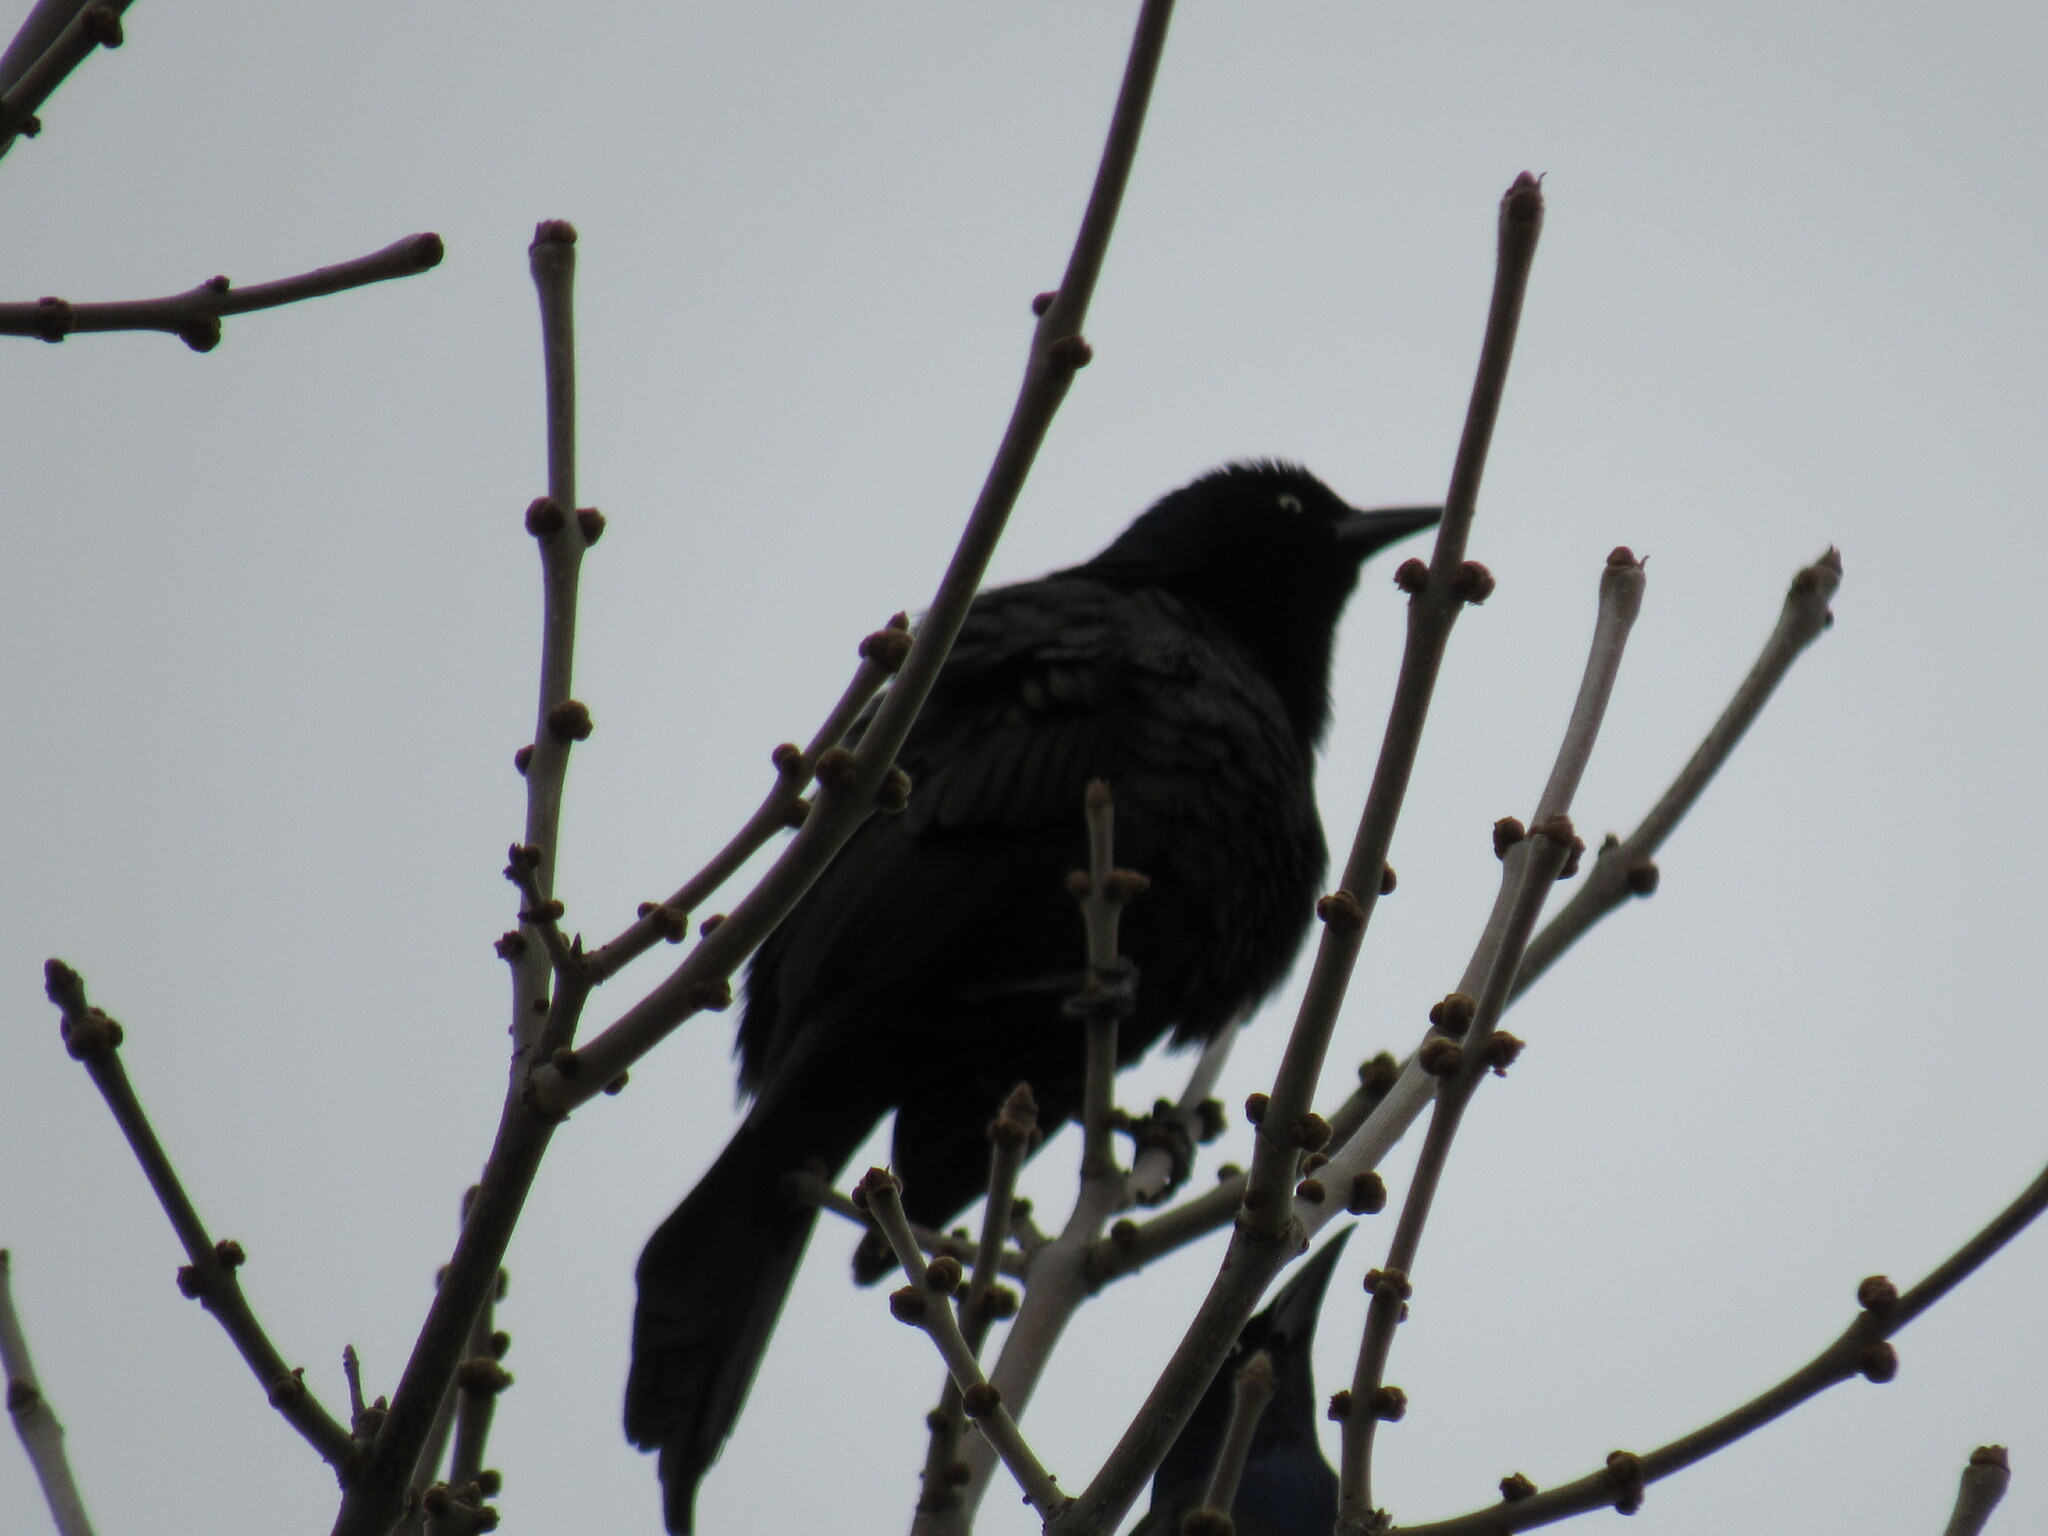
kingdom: Animalia
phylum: Chordata
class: Aves
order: Passeriformes
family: Icteridae
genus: Quiscalus
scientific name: Quiscalus quiscula
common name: Common grackle
